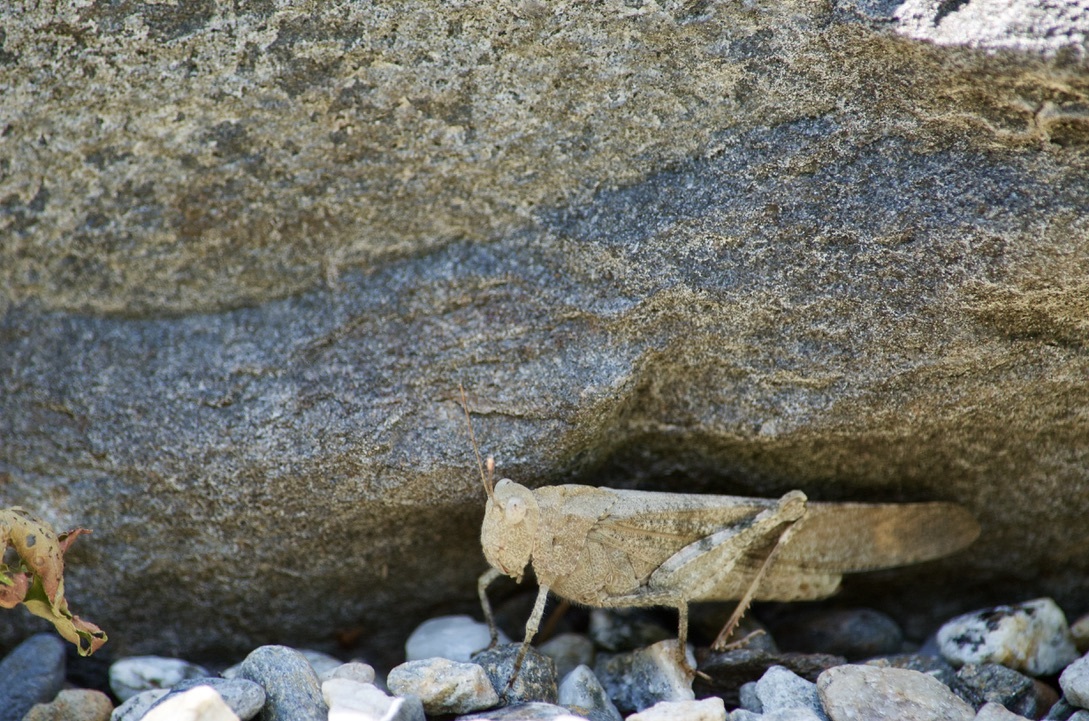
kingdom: Animalia
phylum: Arthropoda
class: Insecta
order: Orthoptera
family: Acrididae
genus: Dissosteira
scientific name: Dissosteira carolina
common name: Carolina grasshopper
